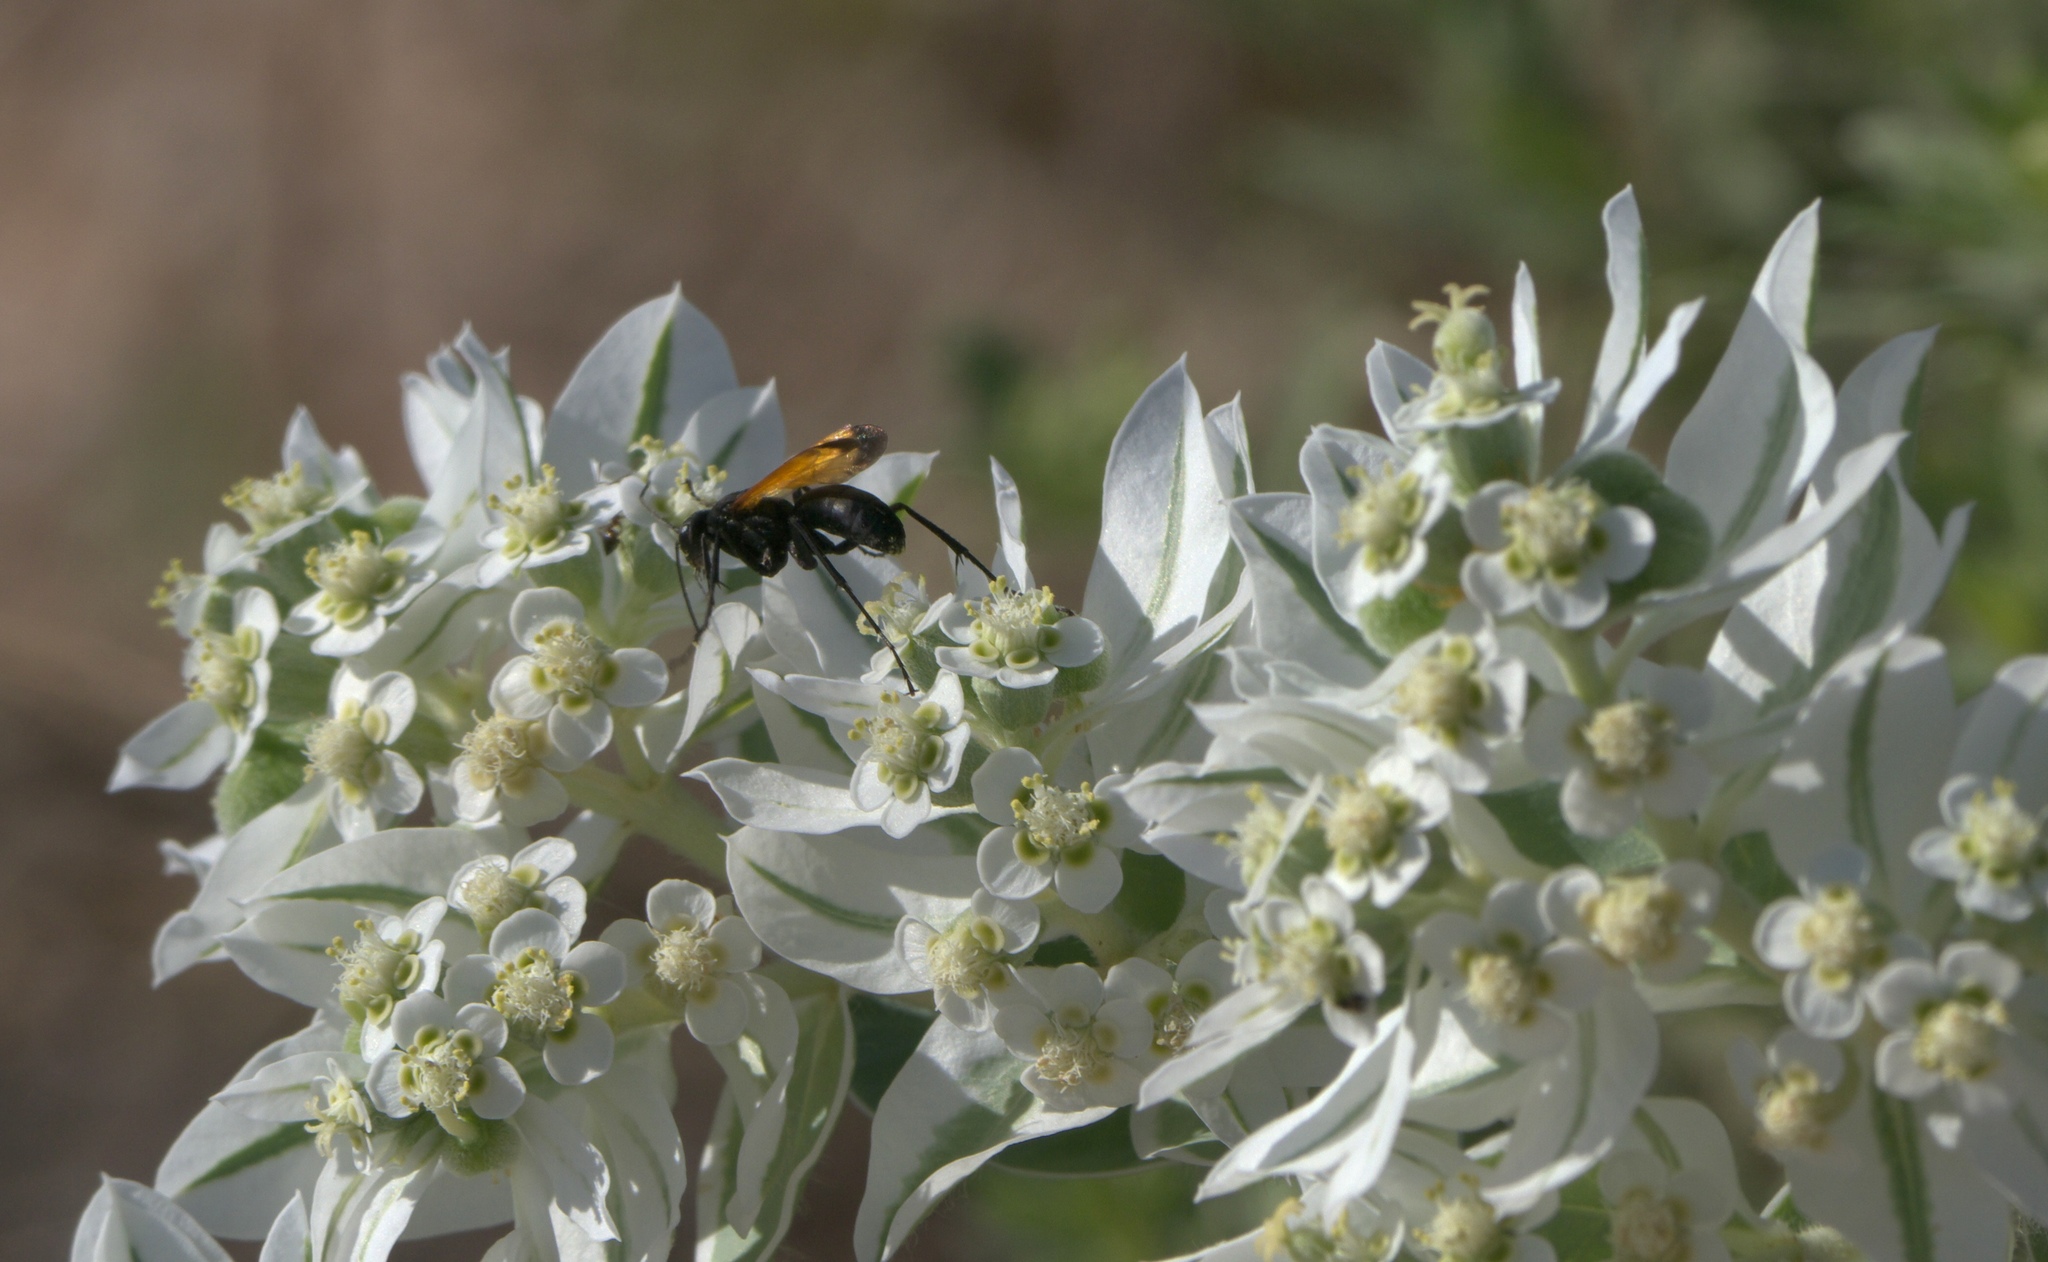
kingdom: Plantae
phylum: Tracheophyta
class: Magnoliopsida
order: Malpighiales
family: Euphorbiaceae
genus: Euphorbia
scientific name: Euphorbia marginata
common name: Ghostweed
